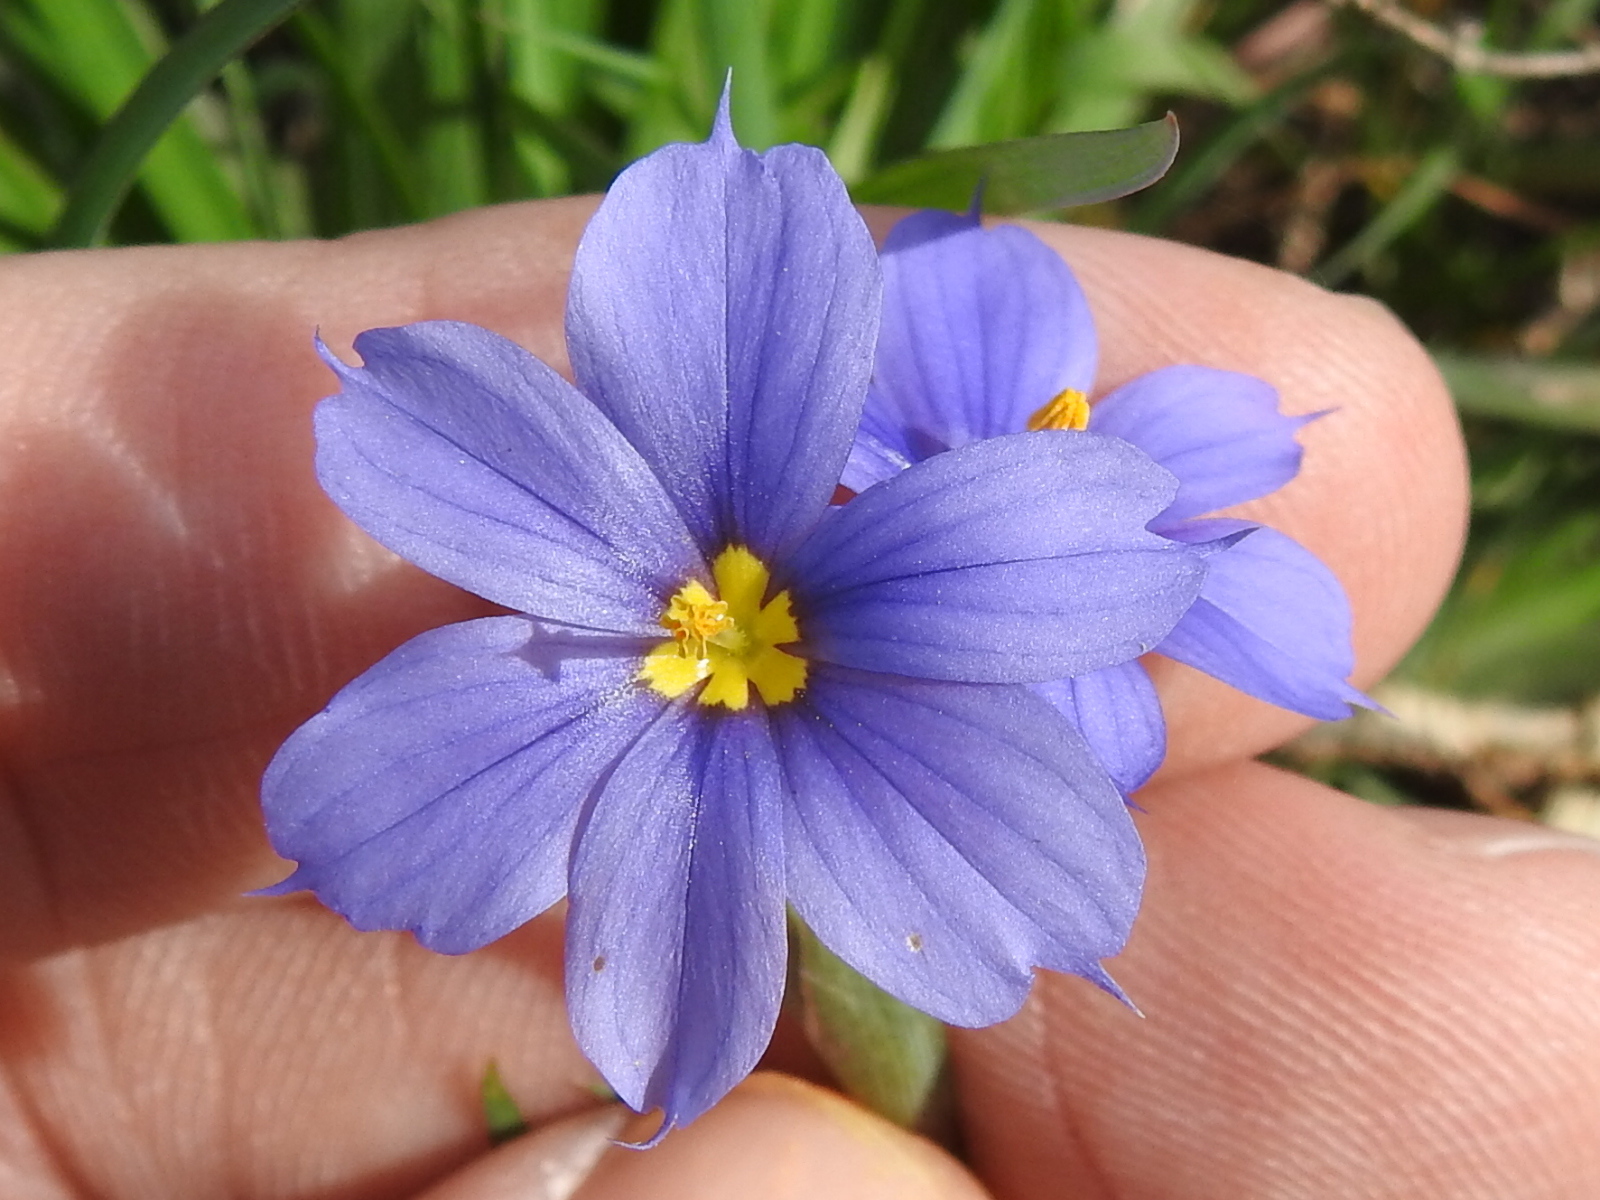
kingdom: Plantae
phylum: Tracheophyta
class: Liliopsida
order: Asparagales
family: Iridaceae
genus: Sisyrinchium
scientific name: Sisyrinchium pruinosum
